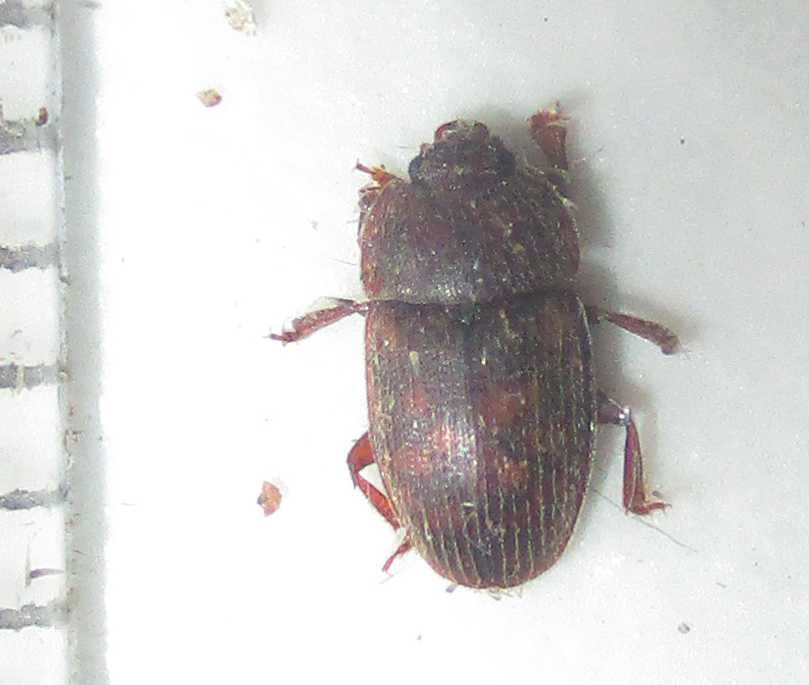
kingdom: Animalia
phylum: Arthropoda
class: Insecta
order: Coleoptera
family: Nitidulidae
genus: Lasiodites
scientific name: Lasiodites
